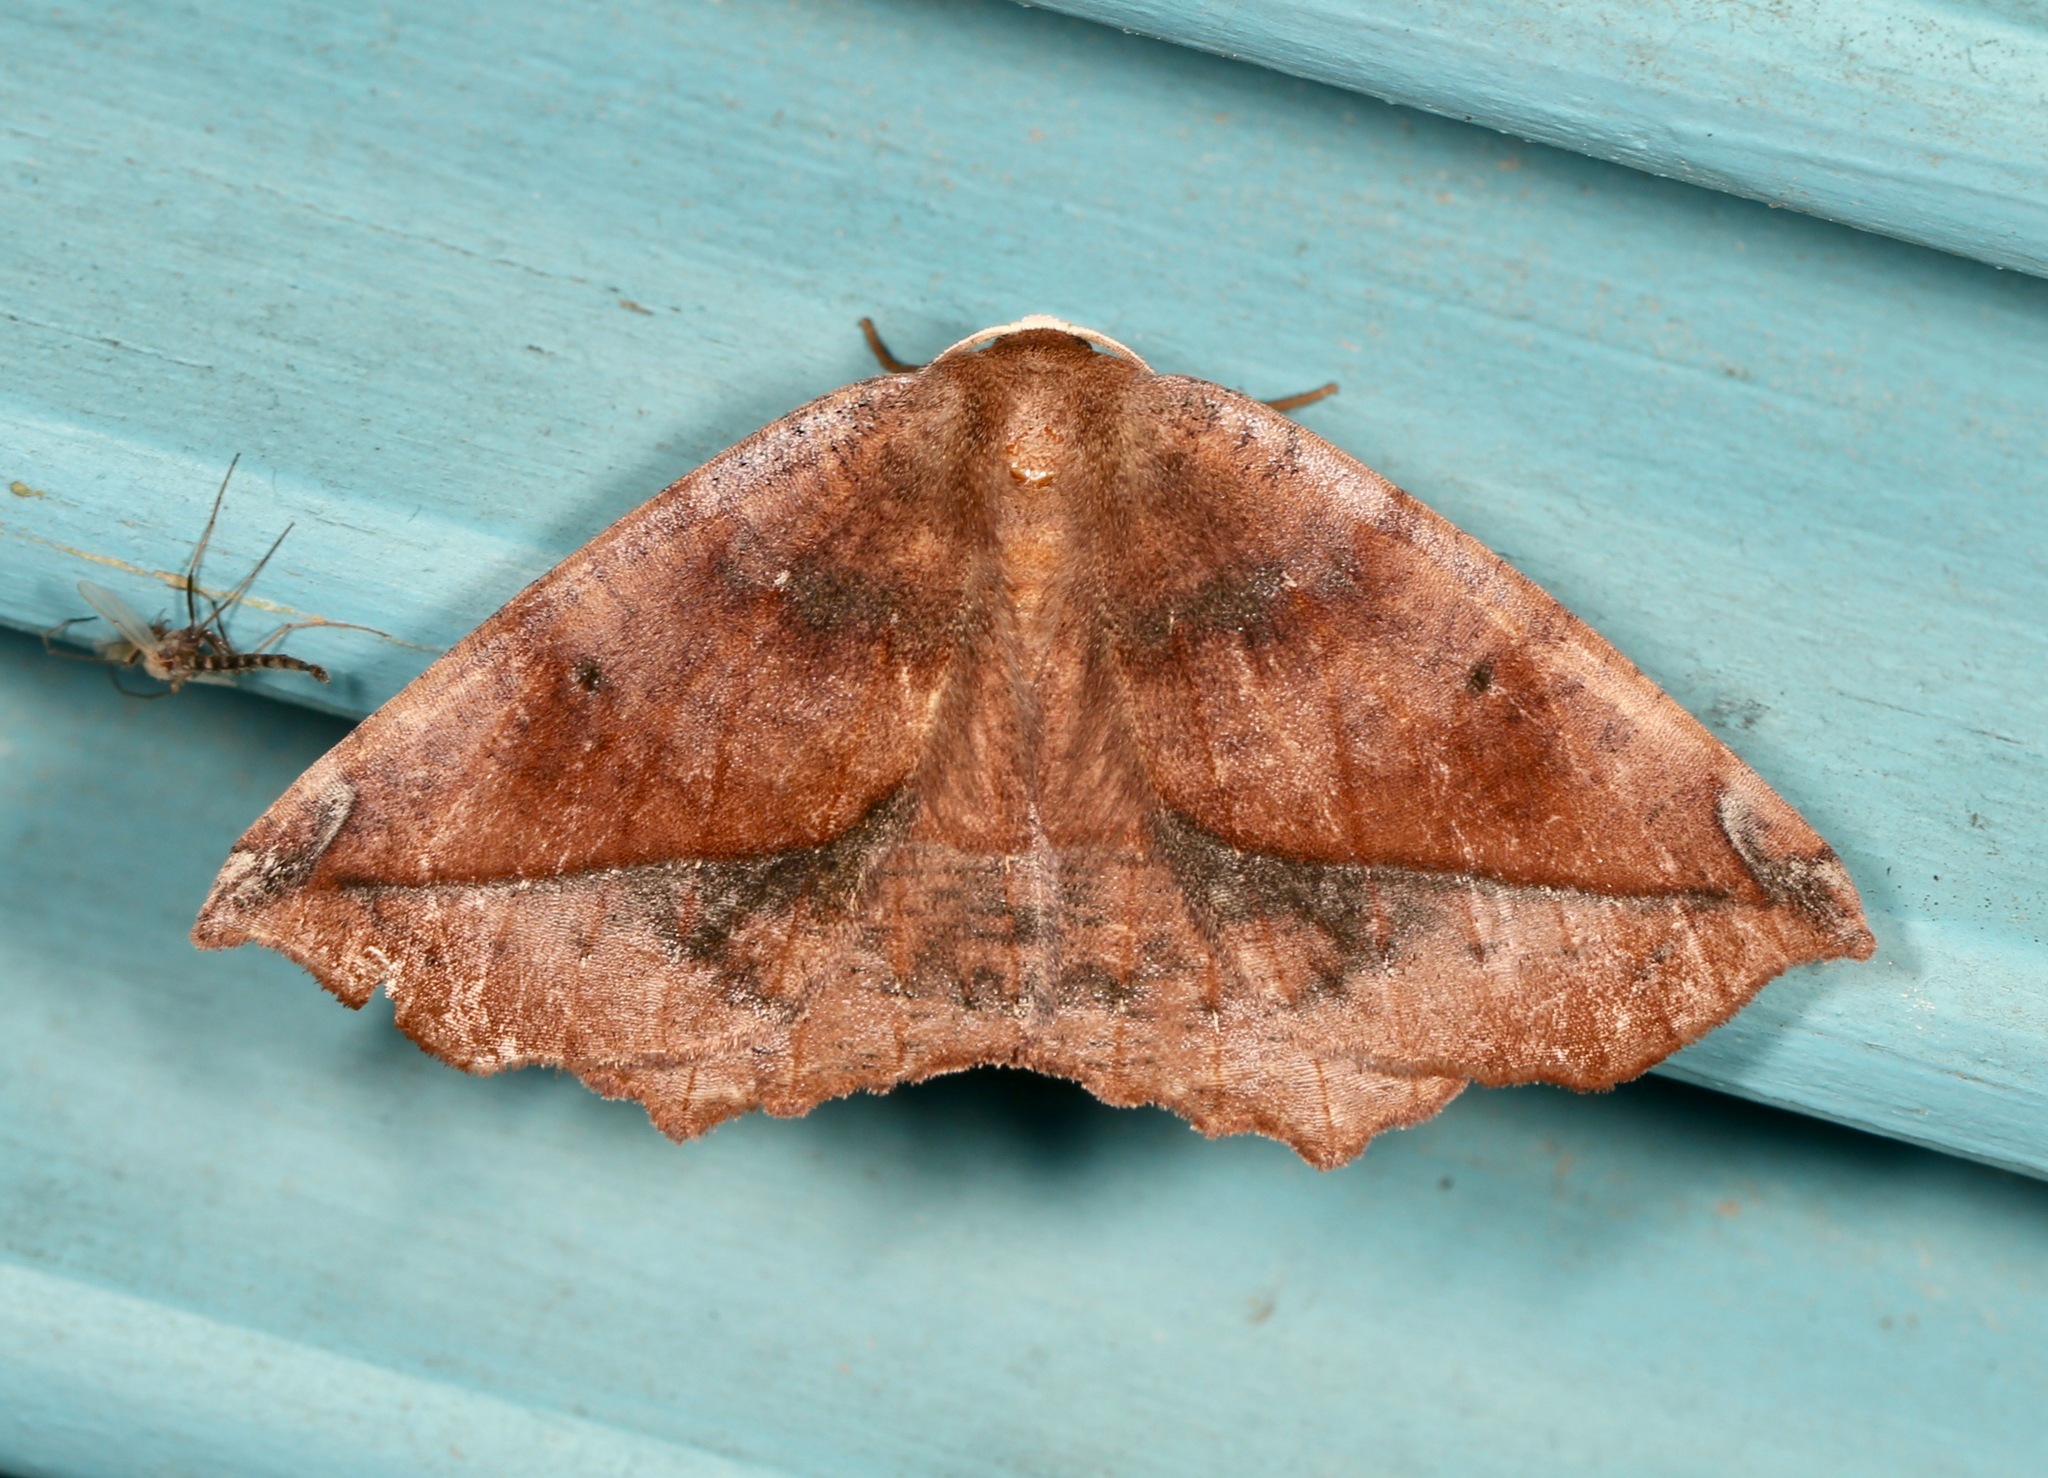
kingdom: Animalia
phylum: Arthropoda
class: Insecta
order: Lepidoptera
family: Geometridae
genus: Eutrapela
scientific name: Eutrapela clemataria
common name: Curved-toothed geometer
